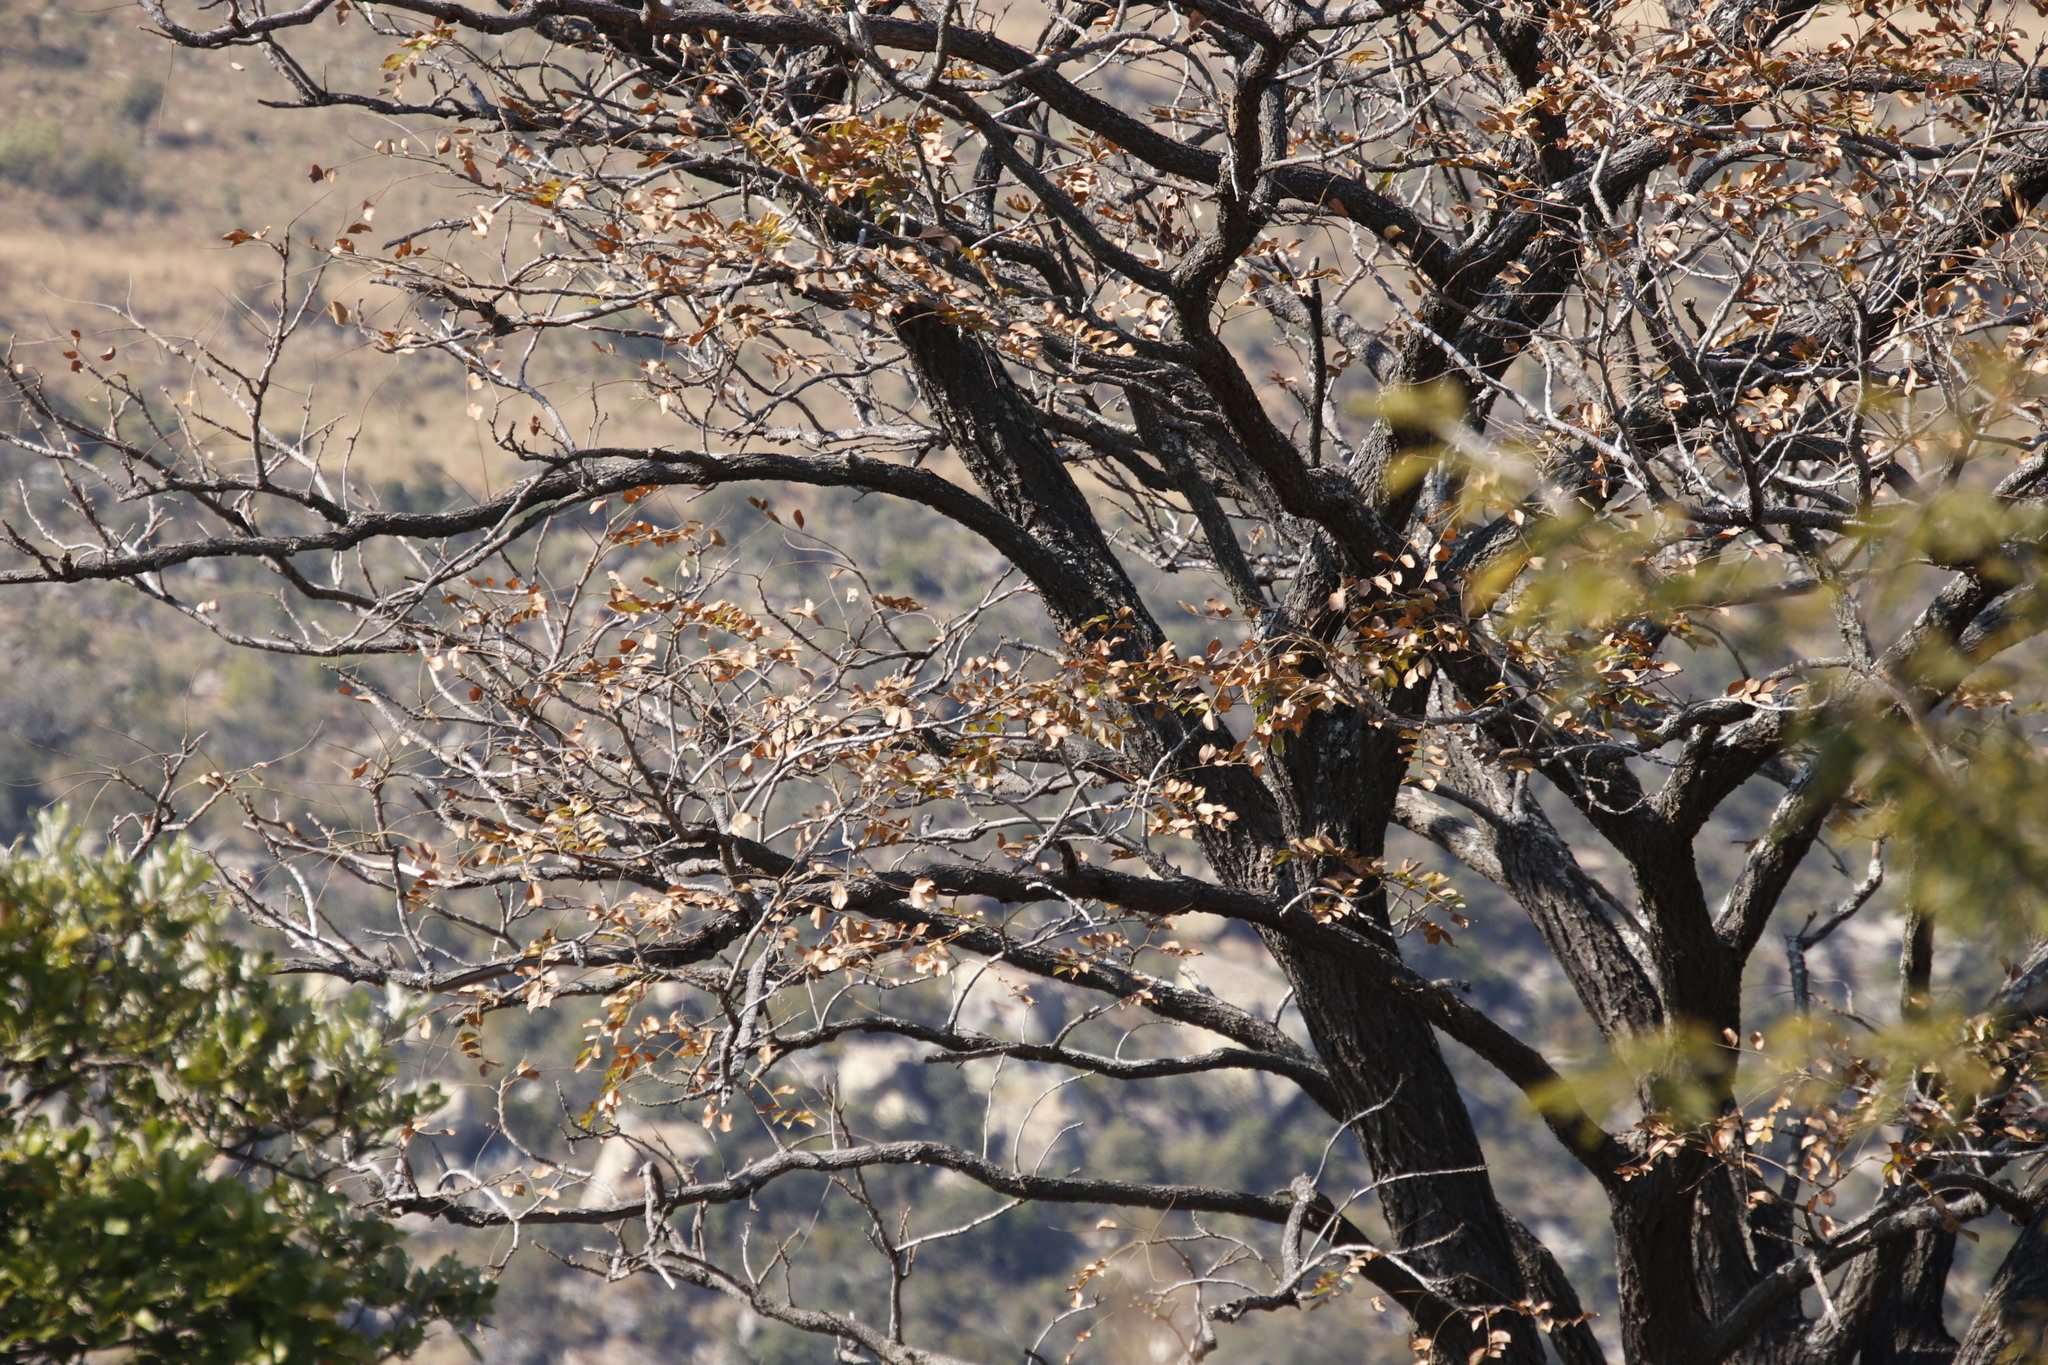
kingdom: Plantae
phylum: Tracheophyta
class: Magnoliopsida
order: Fabales
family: Fabaceae
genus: Pterocarpus
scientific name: Pterocarpus angolensis
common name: Bloodwood tree
